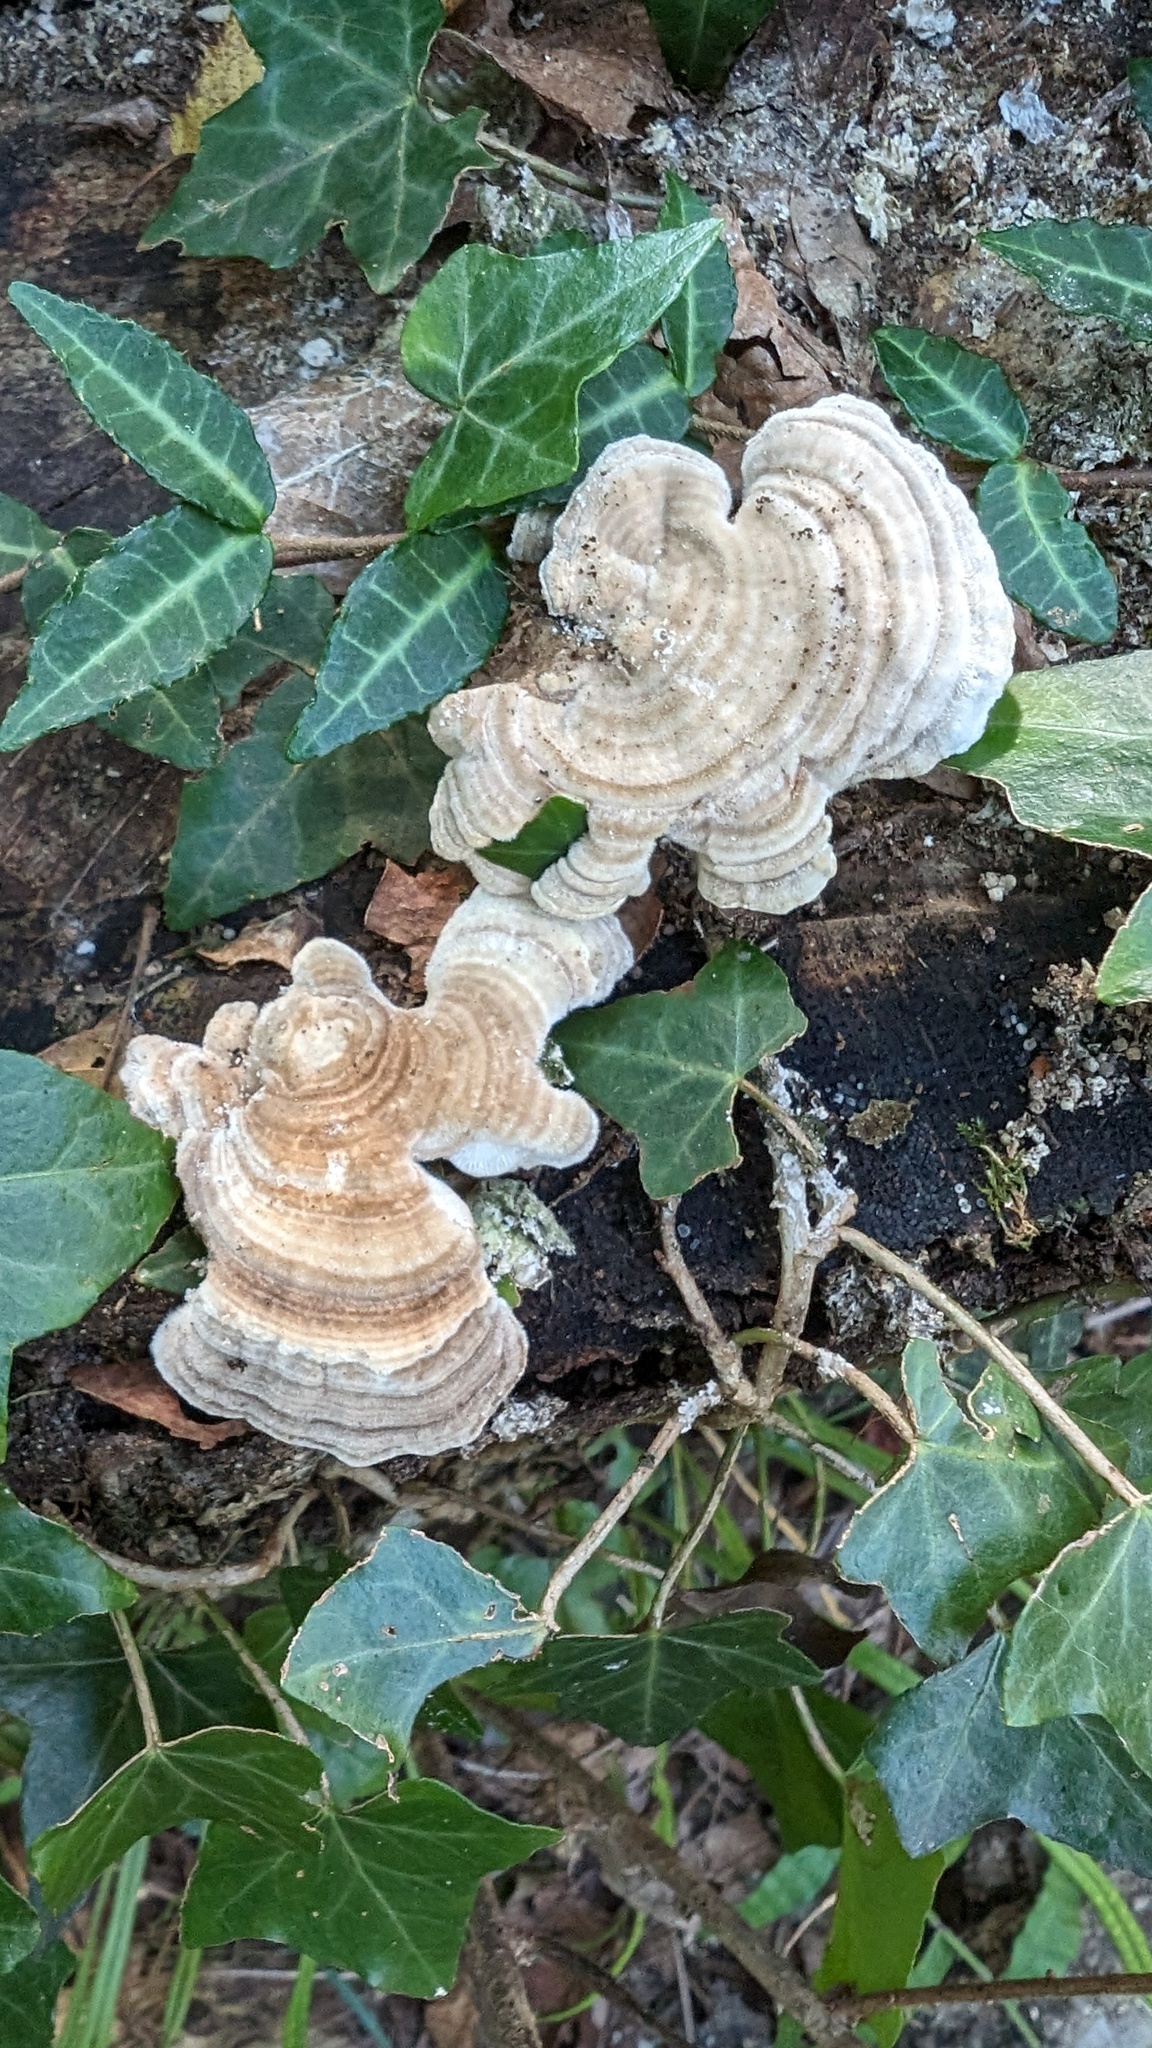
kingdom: Fungi
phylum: Basidiomycota
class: Agaricomycetes
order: Polyporales
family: Polyporaceae
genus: Lenzites
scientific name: Lenzites betulinus
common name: Birch mazegill
